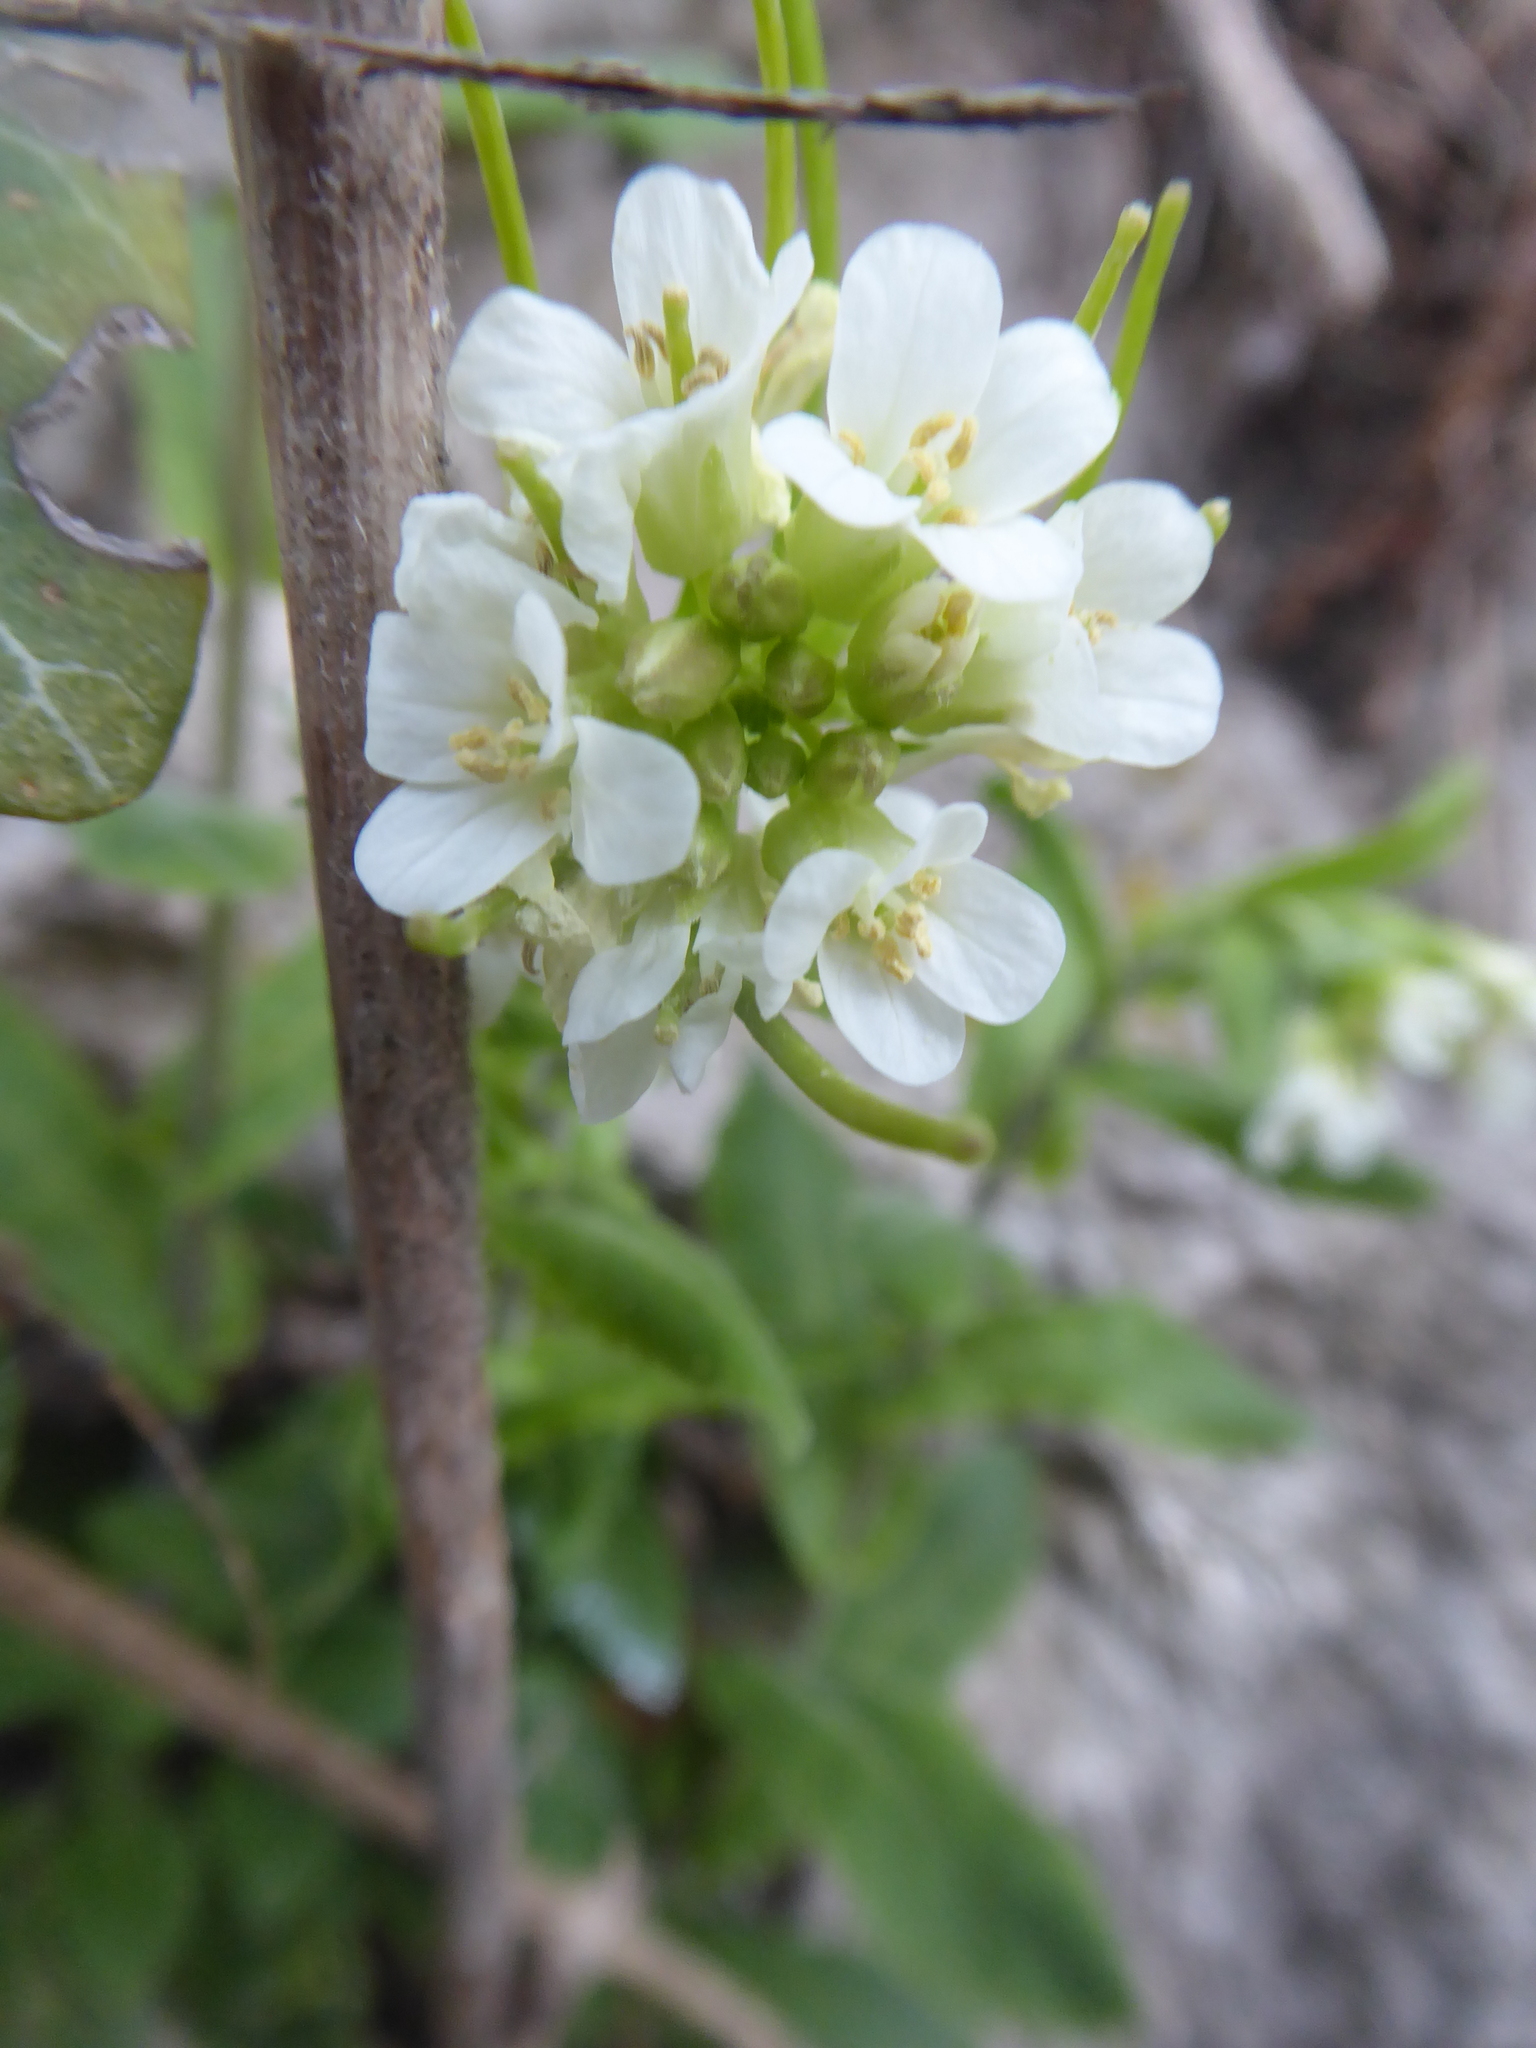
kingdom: Plantae
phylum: Tracheophyta
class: Magnoliopsida
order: Brassicales
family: Brassicaceae
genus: Pseudoturritis
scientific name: Pseudoturritis turrita
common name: Tower cress
